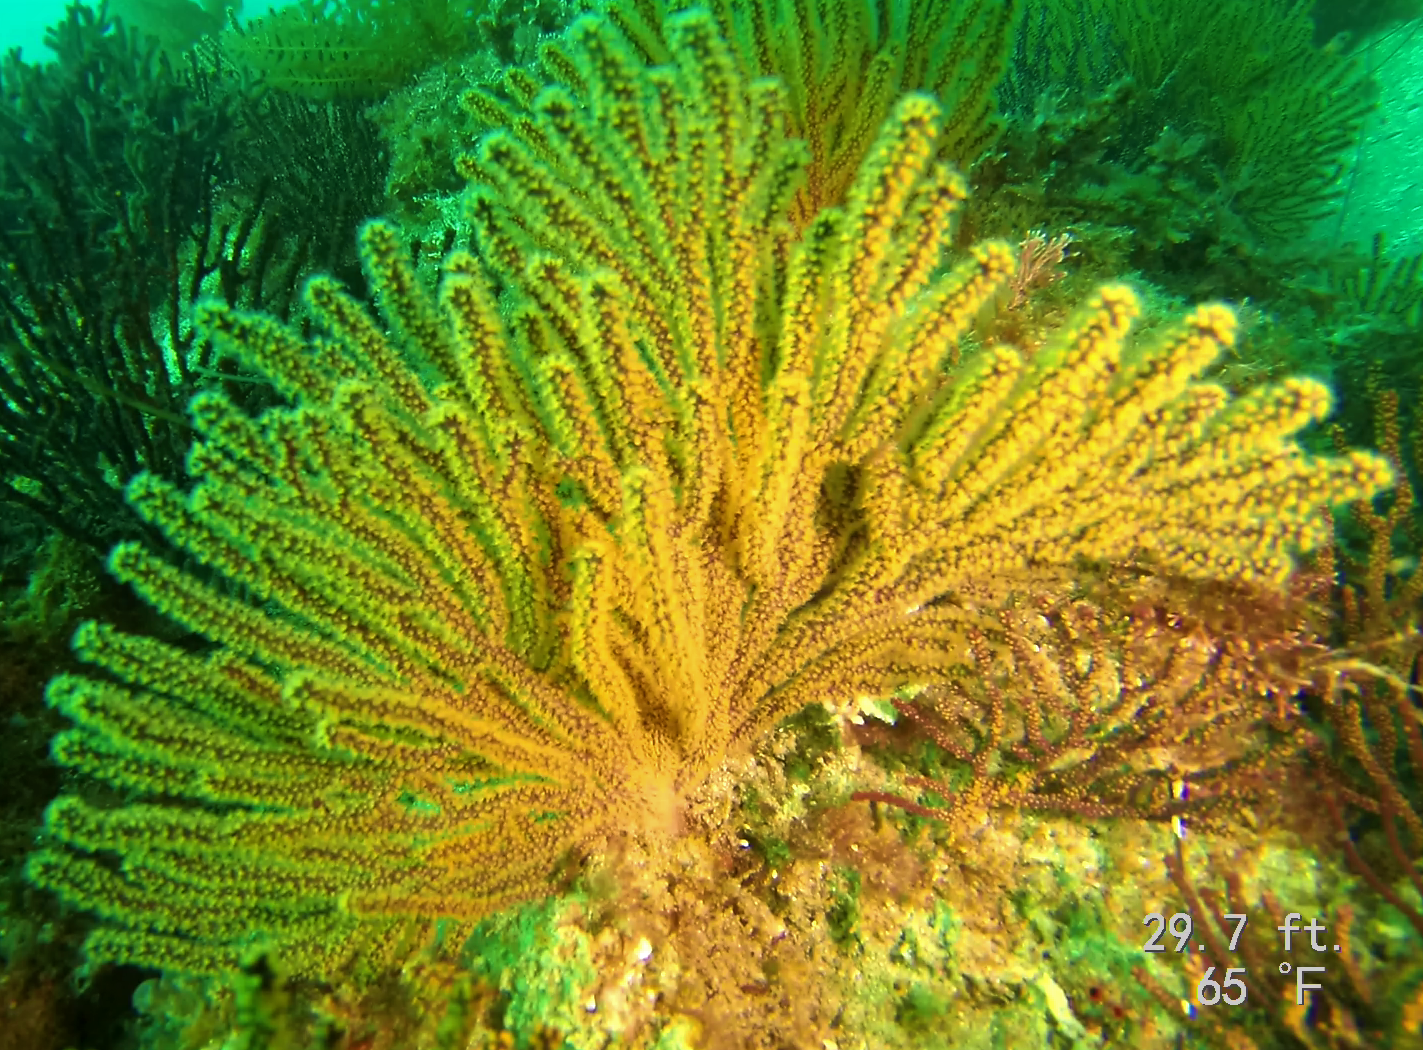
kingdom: Animalia
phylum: Cnidaria
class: Anthozoa
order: Malacalcyonacea
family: Plexauridae
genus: Muricea
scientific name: Muricea californica
